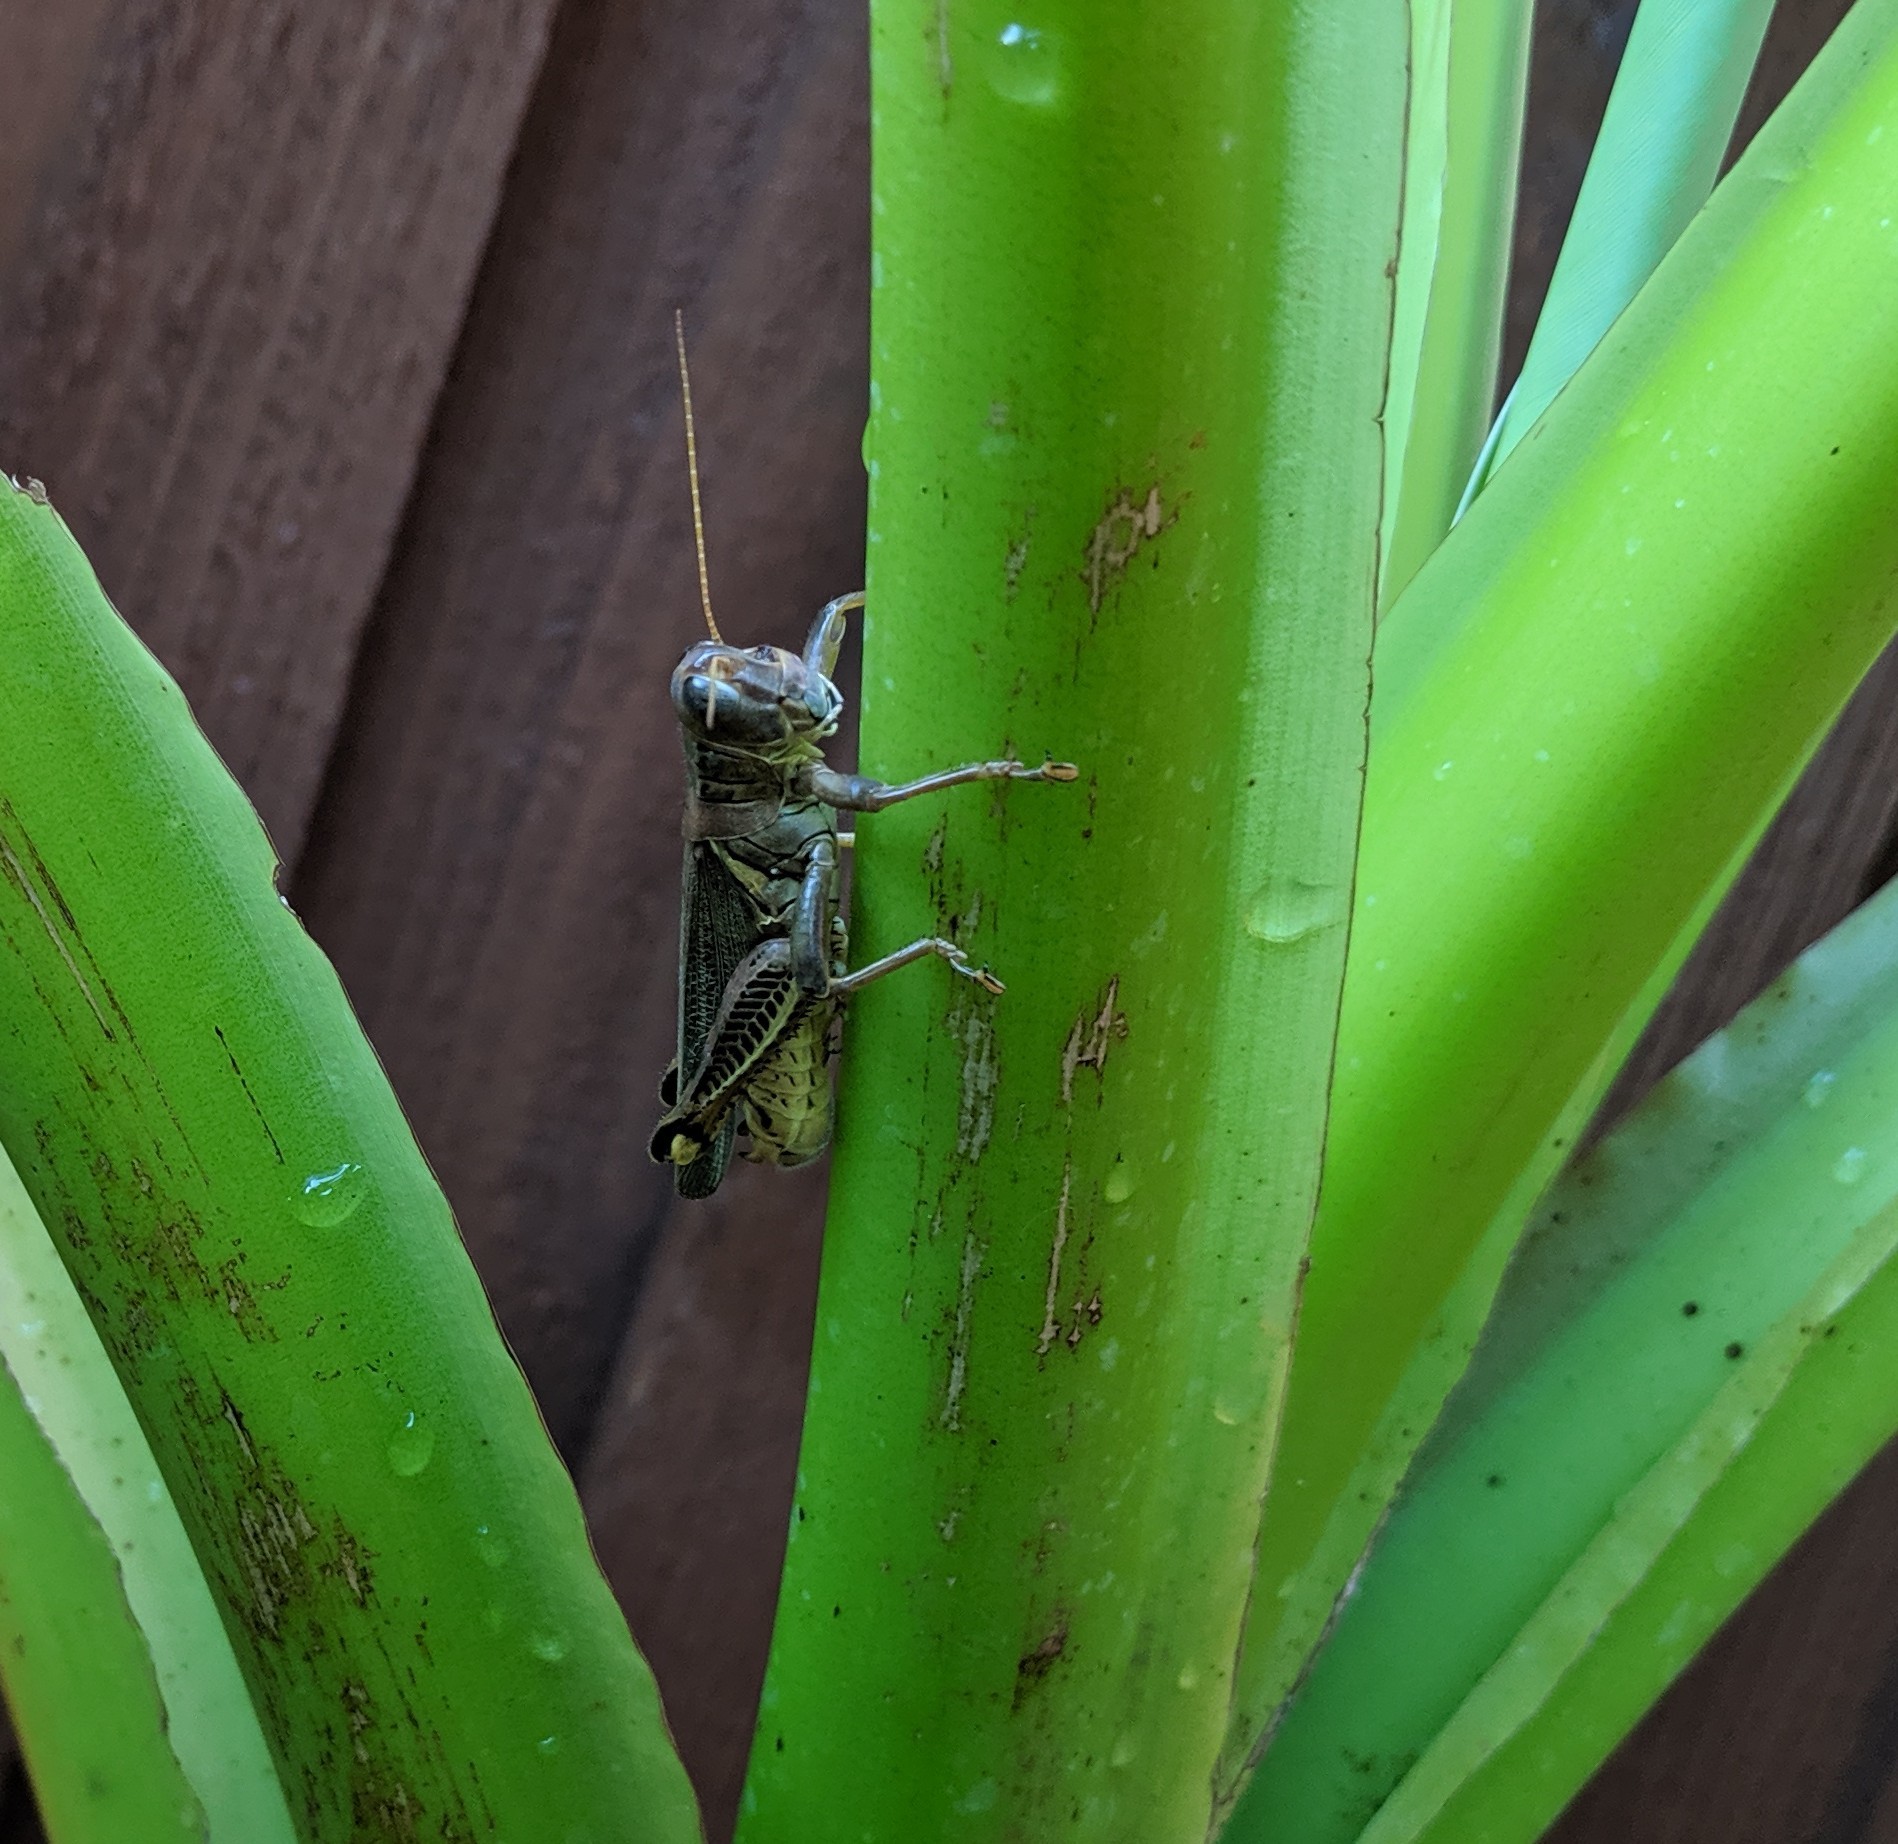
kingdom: Animalia
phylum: Arthropoda
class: Insecta
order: Orthoptera
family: Acrididae
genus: Melanoplus
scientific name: Melanoplus differentialis
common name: Differential grasshopper
